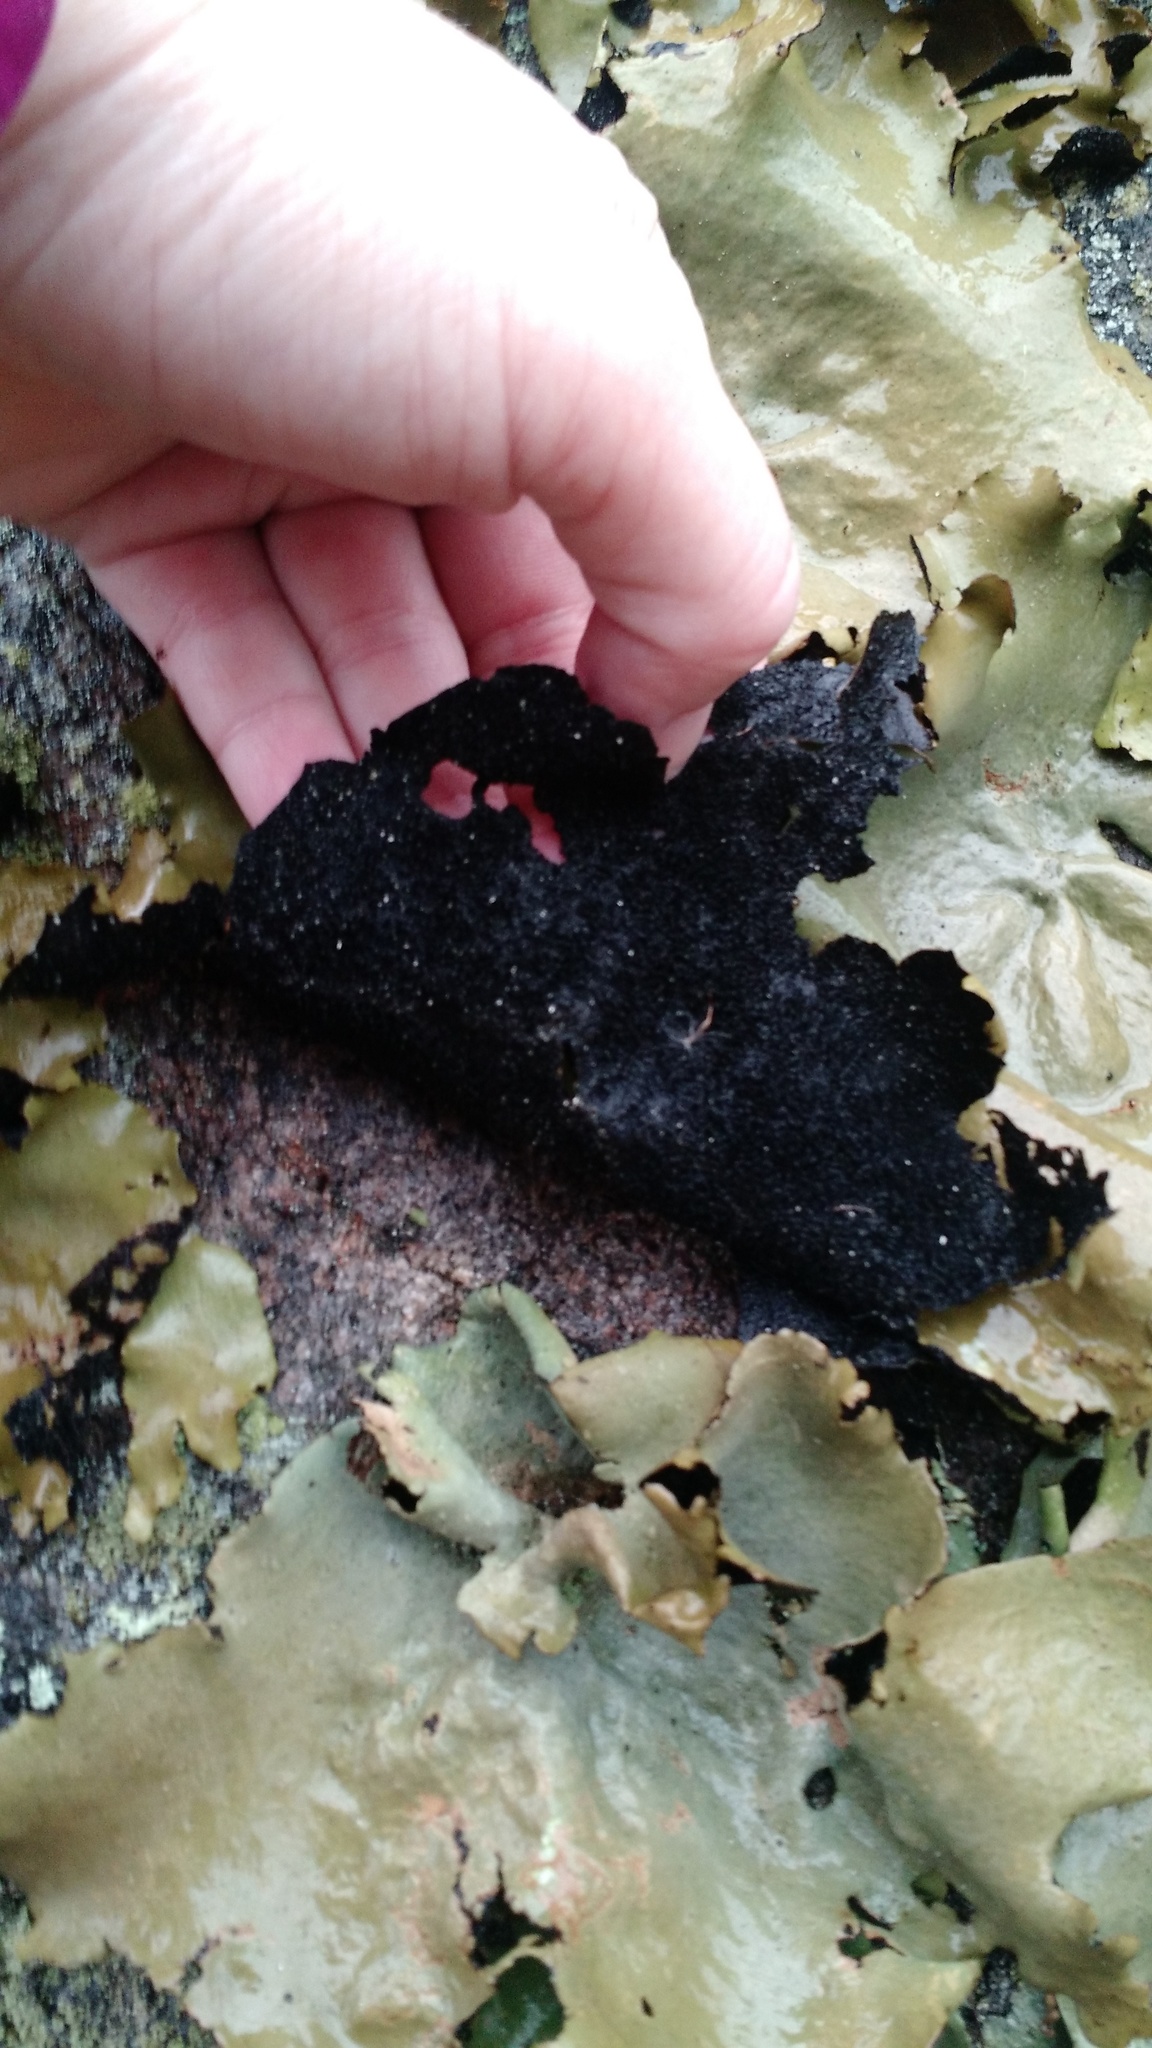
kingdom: Fungi
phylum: Ascomycota
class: Lecanoromycetes
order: Umbilicariales
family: Umbilicariaceae
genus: Umbilicaria
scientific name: Umbilicaria mammulata
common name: Smooth rock tripe
